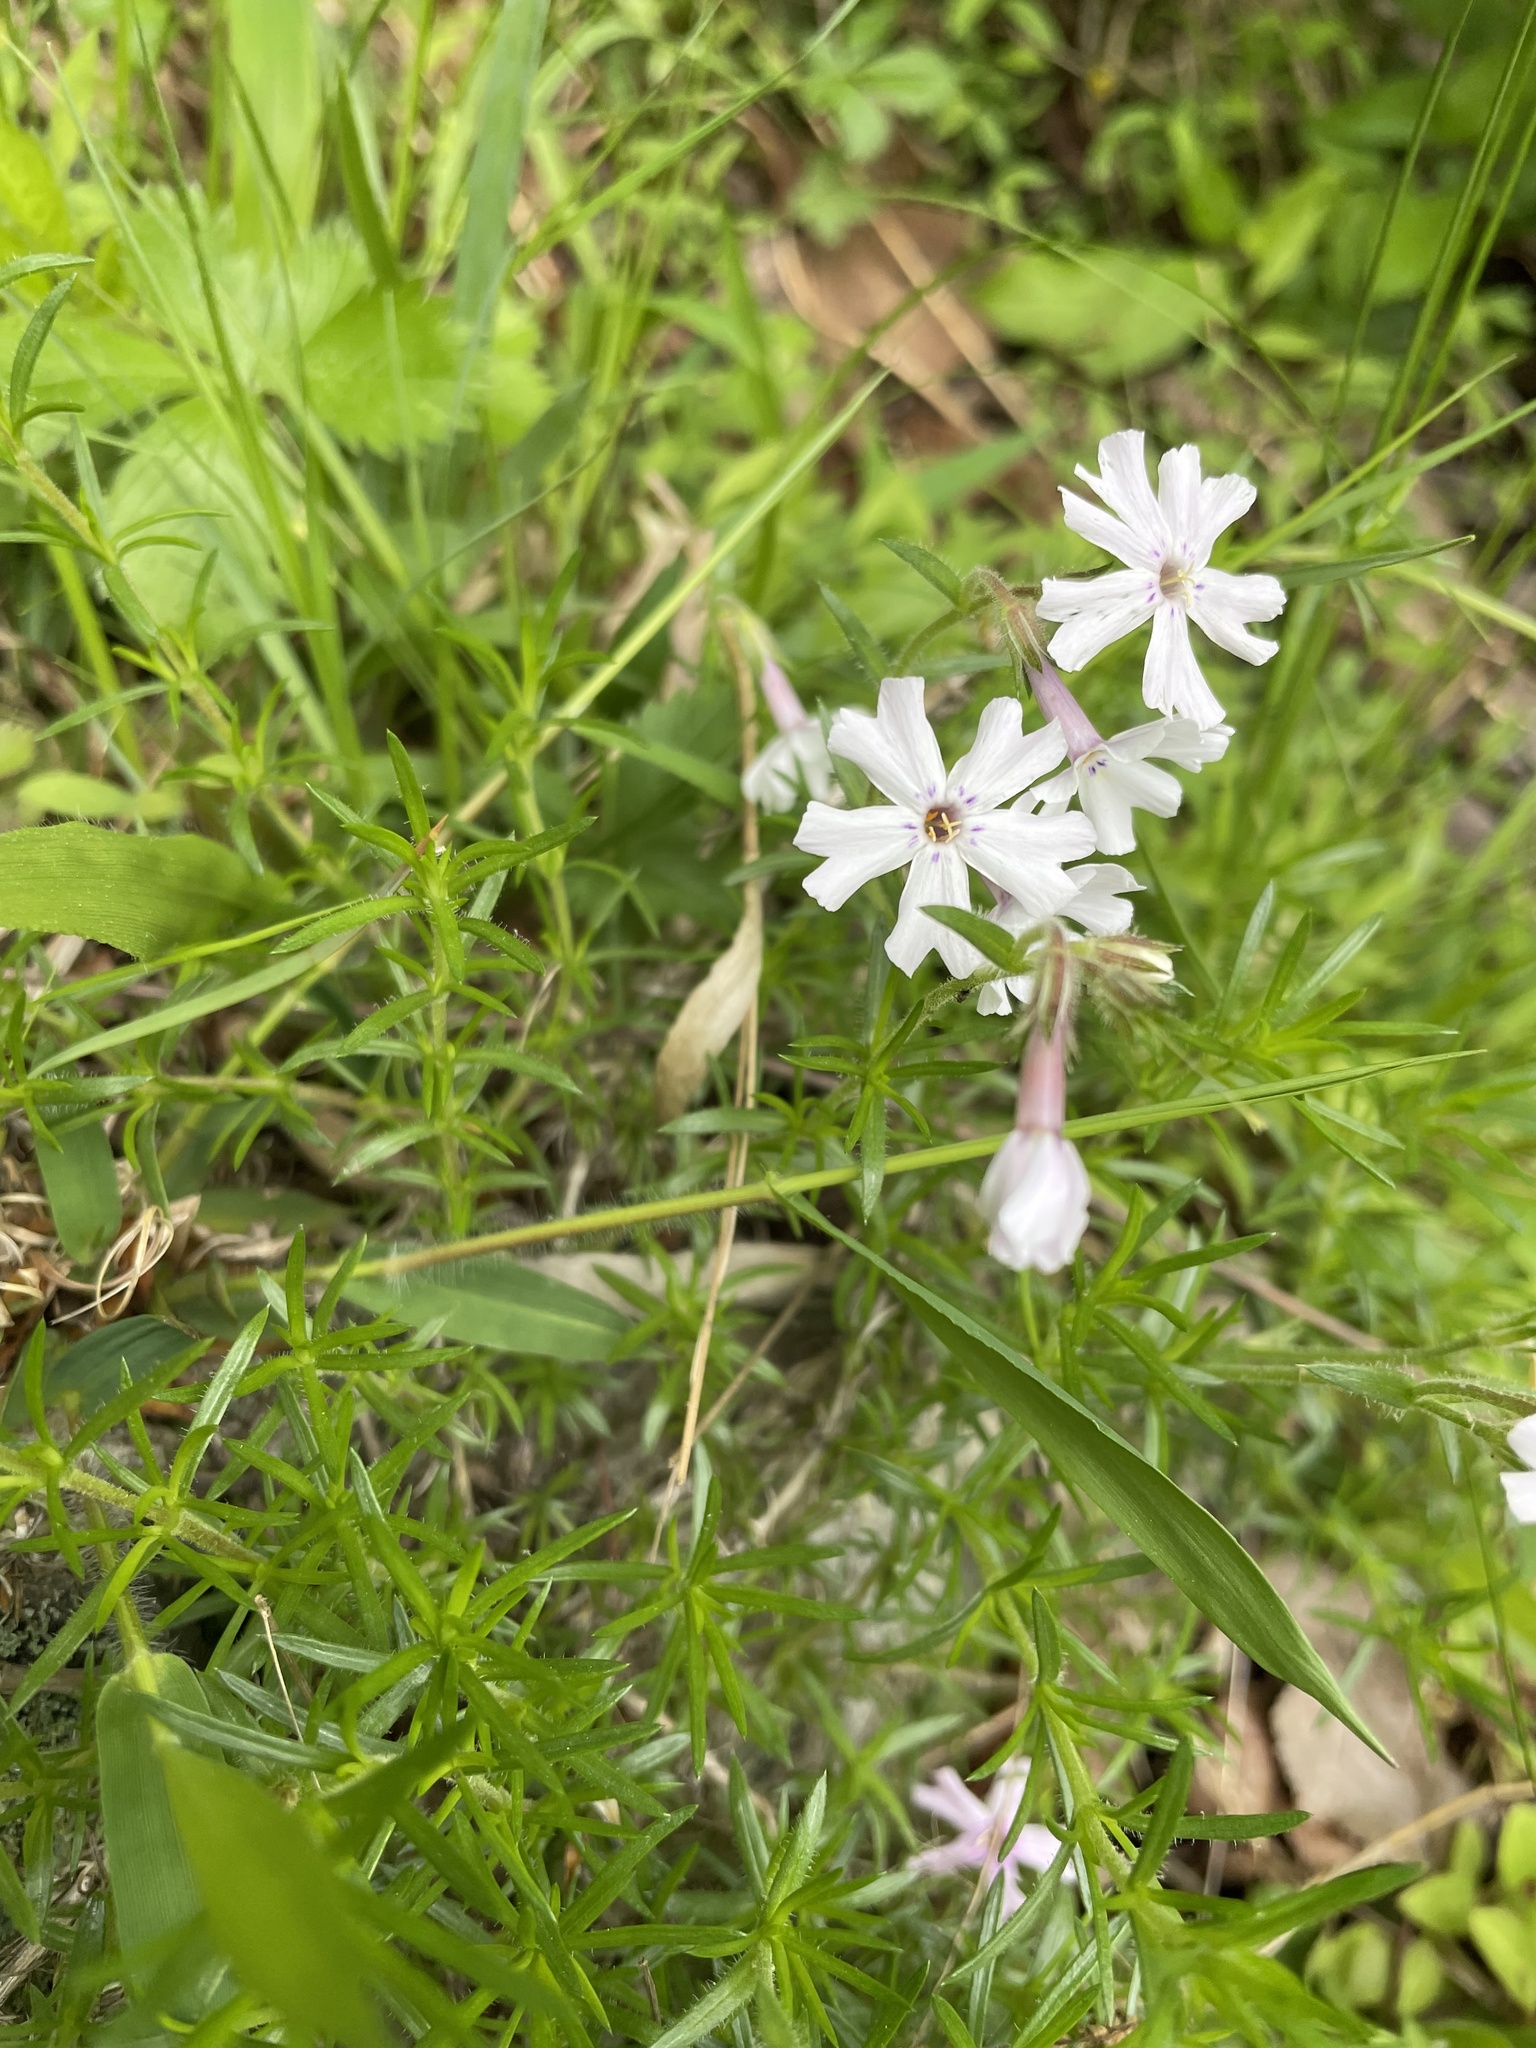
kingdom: Plantae
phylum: Tracheophyta
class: Magnoliopsida
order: Ericales
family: Polemoniaceae
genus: Phlox
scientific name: Phlox subulata
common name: Moss phlox
